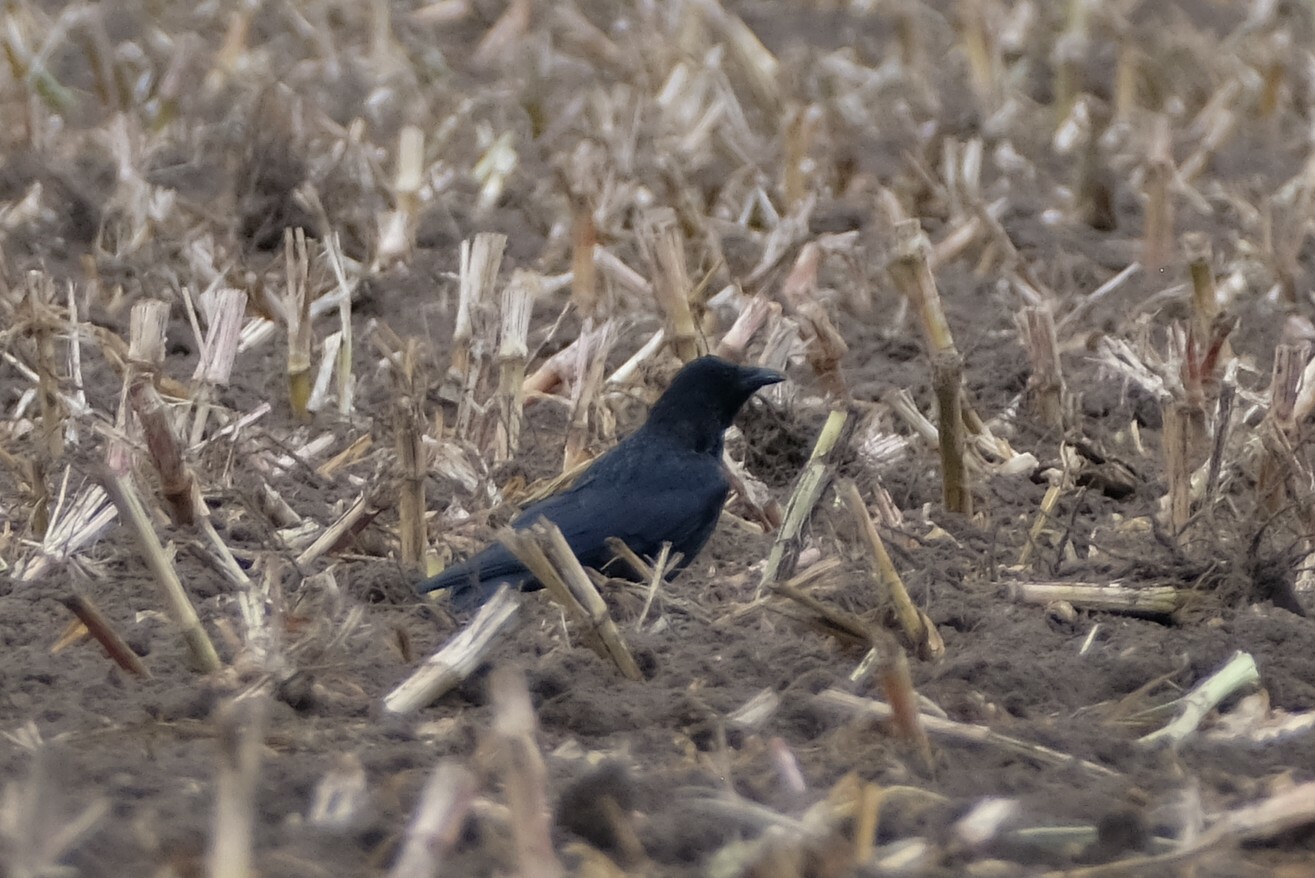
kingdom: Animalia
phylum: Chordata
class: Aves
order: Passeriformes
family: Corvidae
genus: Corvus
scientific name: Corvus corone
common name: Carrion crow
